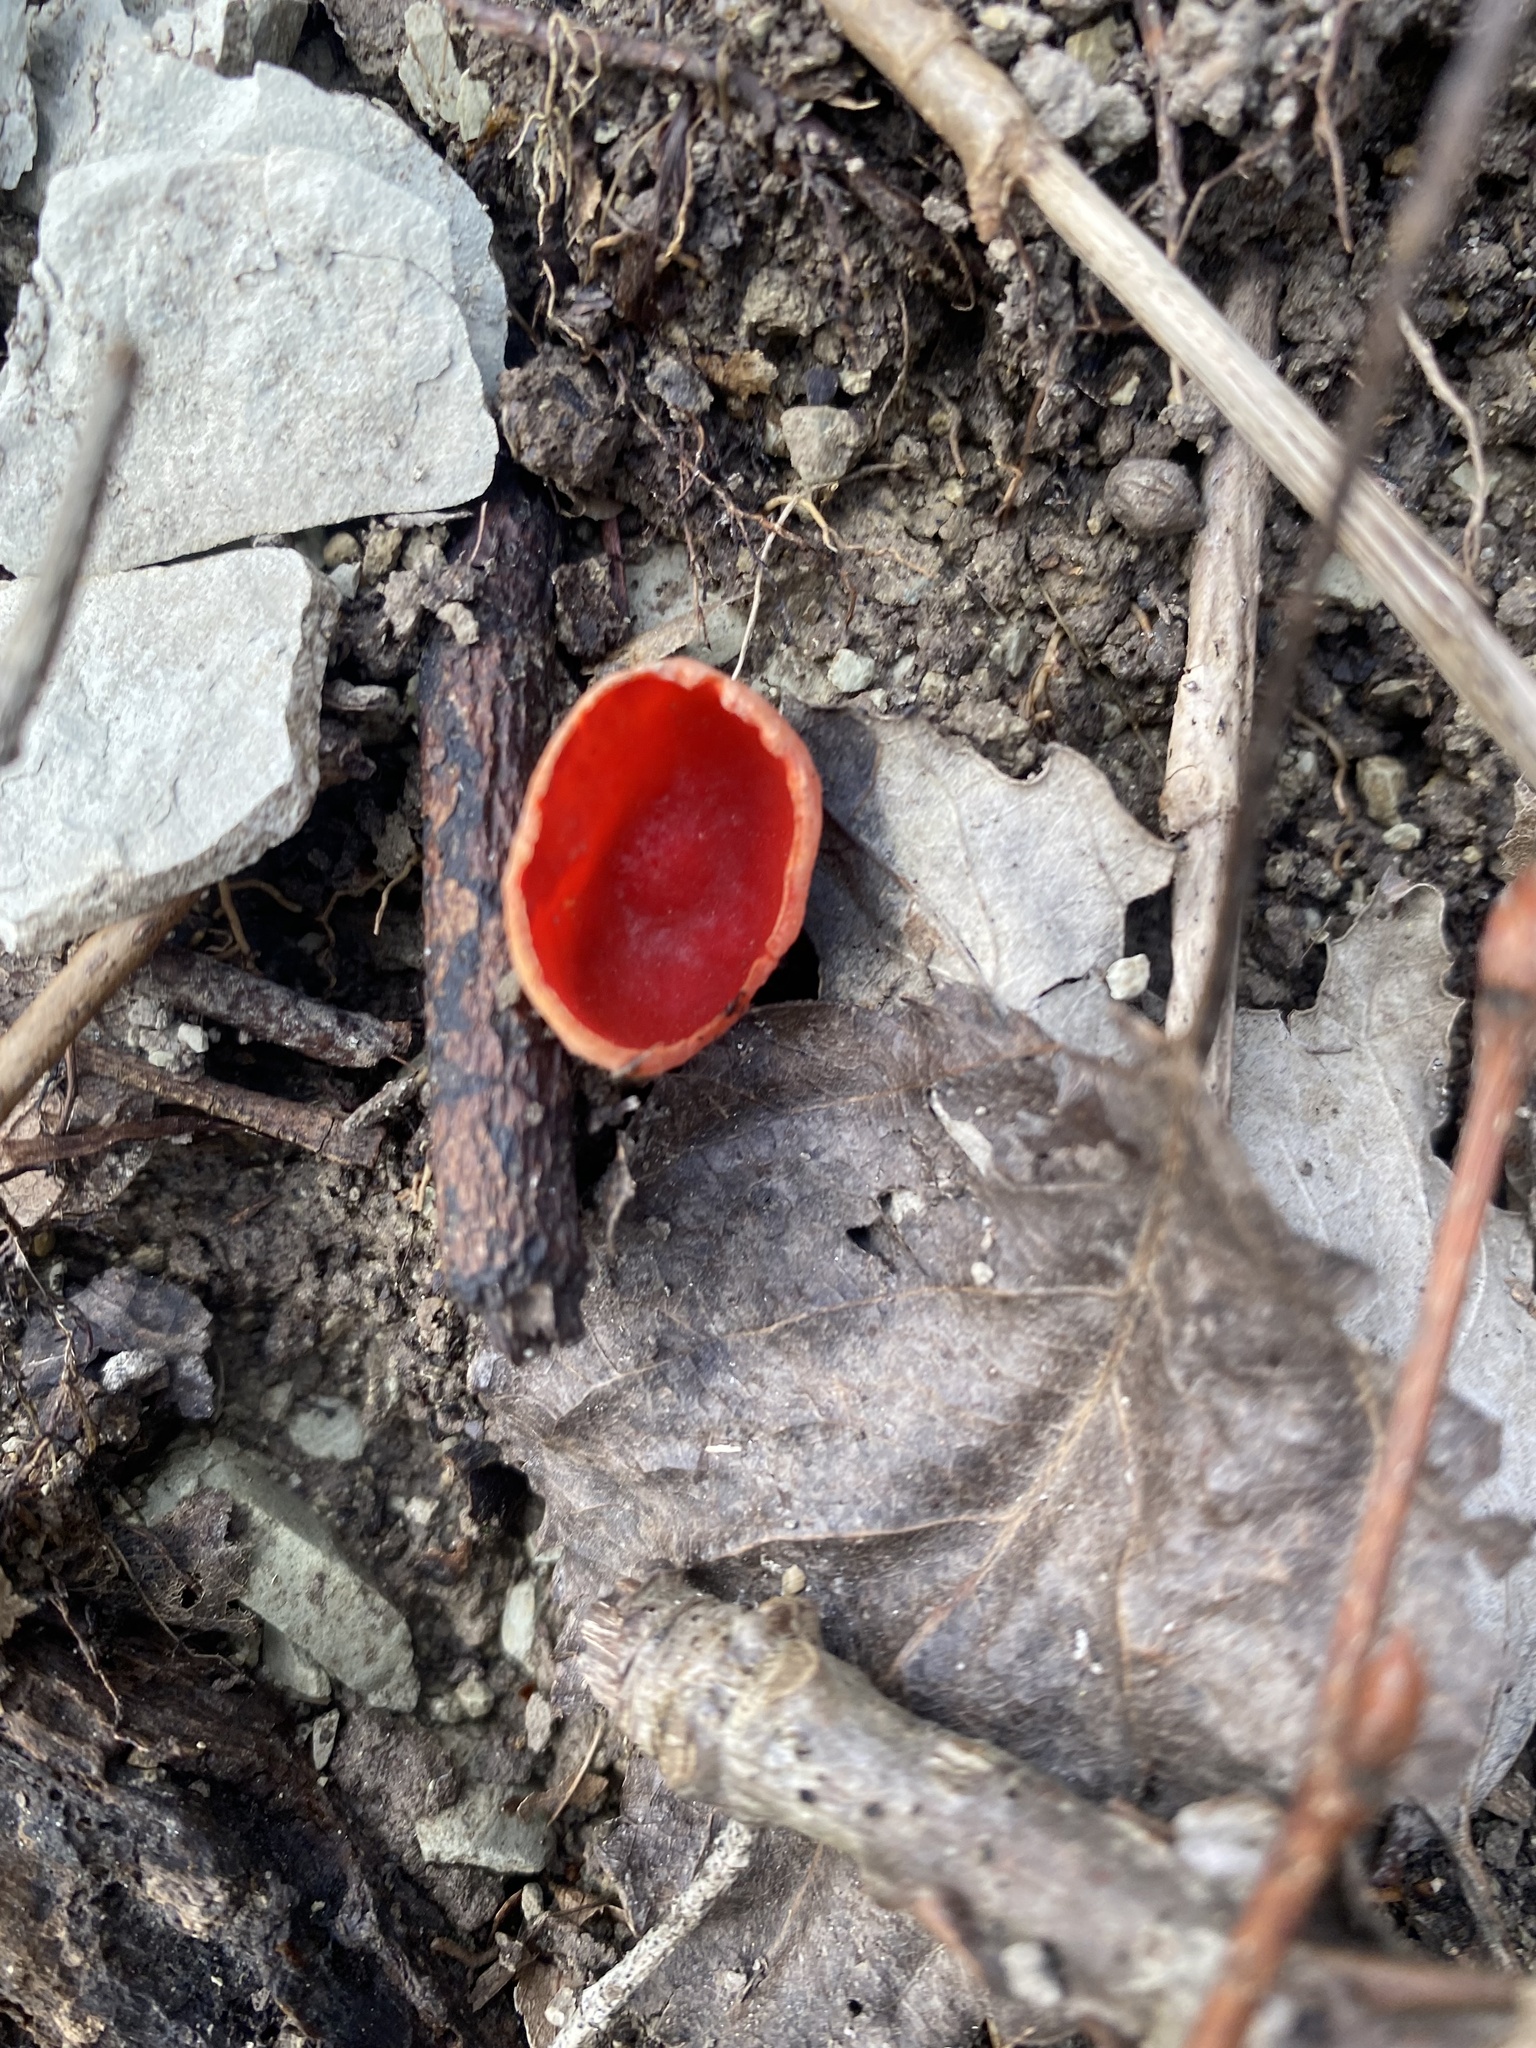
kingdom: Fungi
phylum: Ascomycota
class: Pezizomycetes
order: Pezizales
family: Sarcoscyphaceae
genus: Sarcoscypha
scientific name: Sarcoscypha
